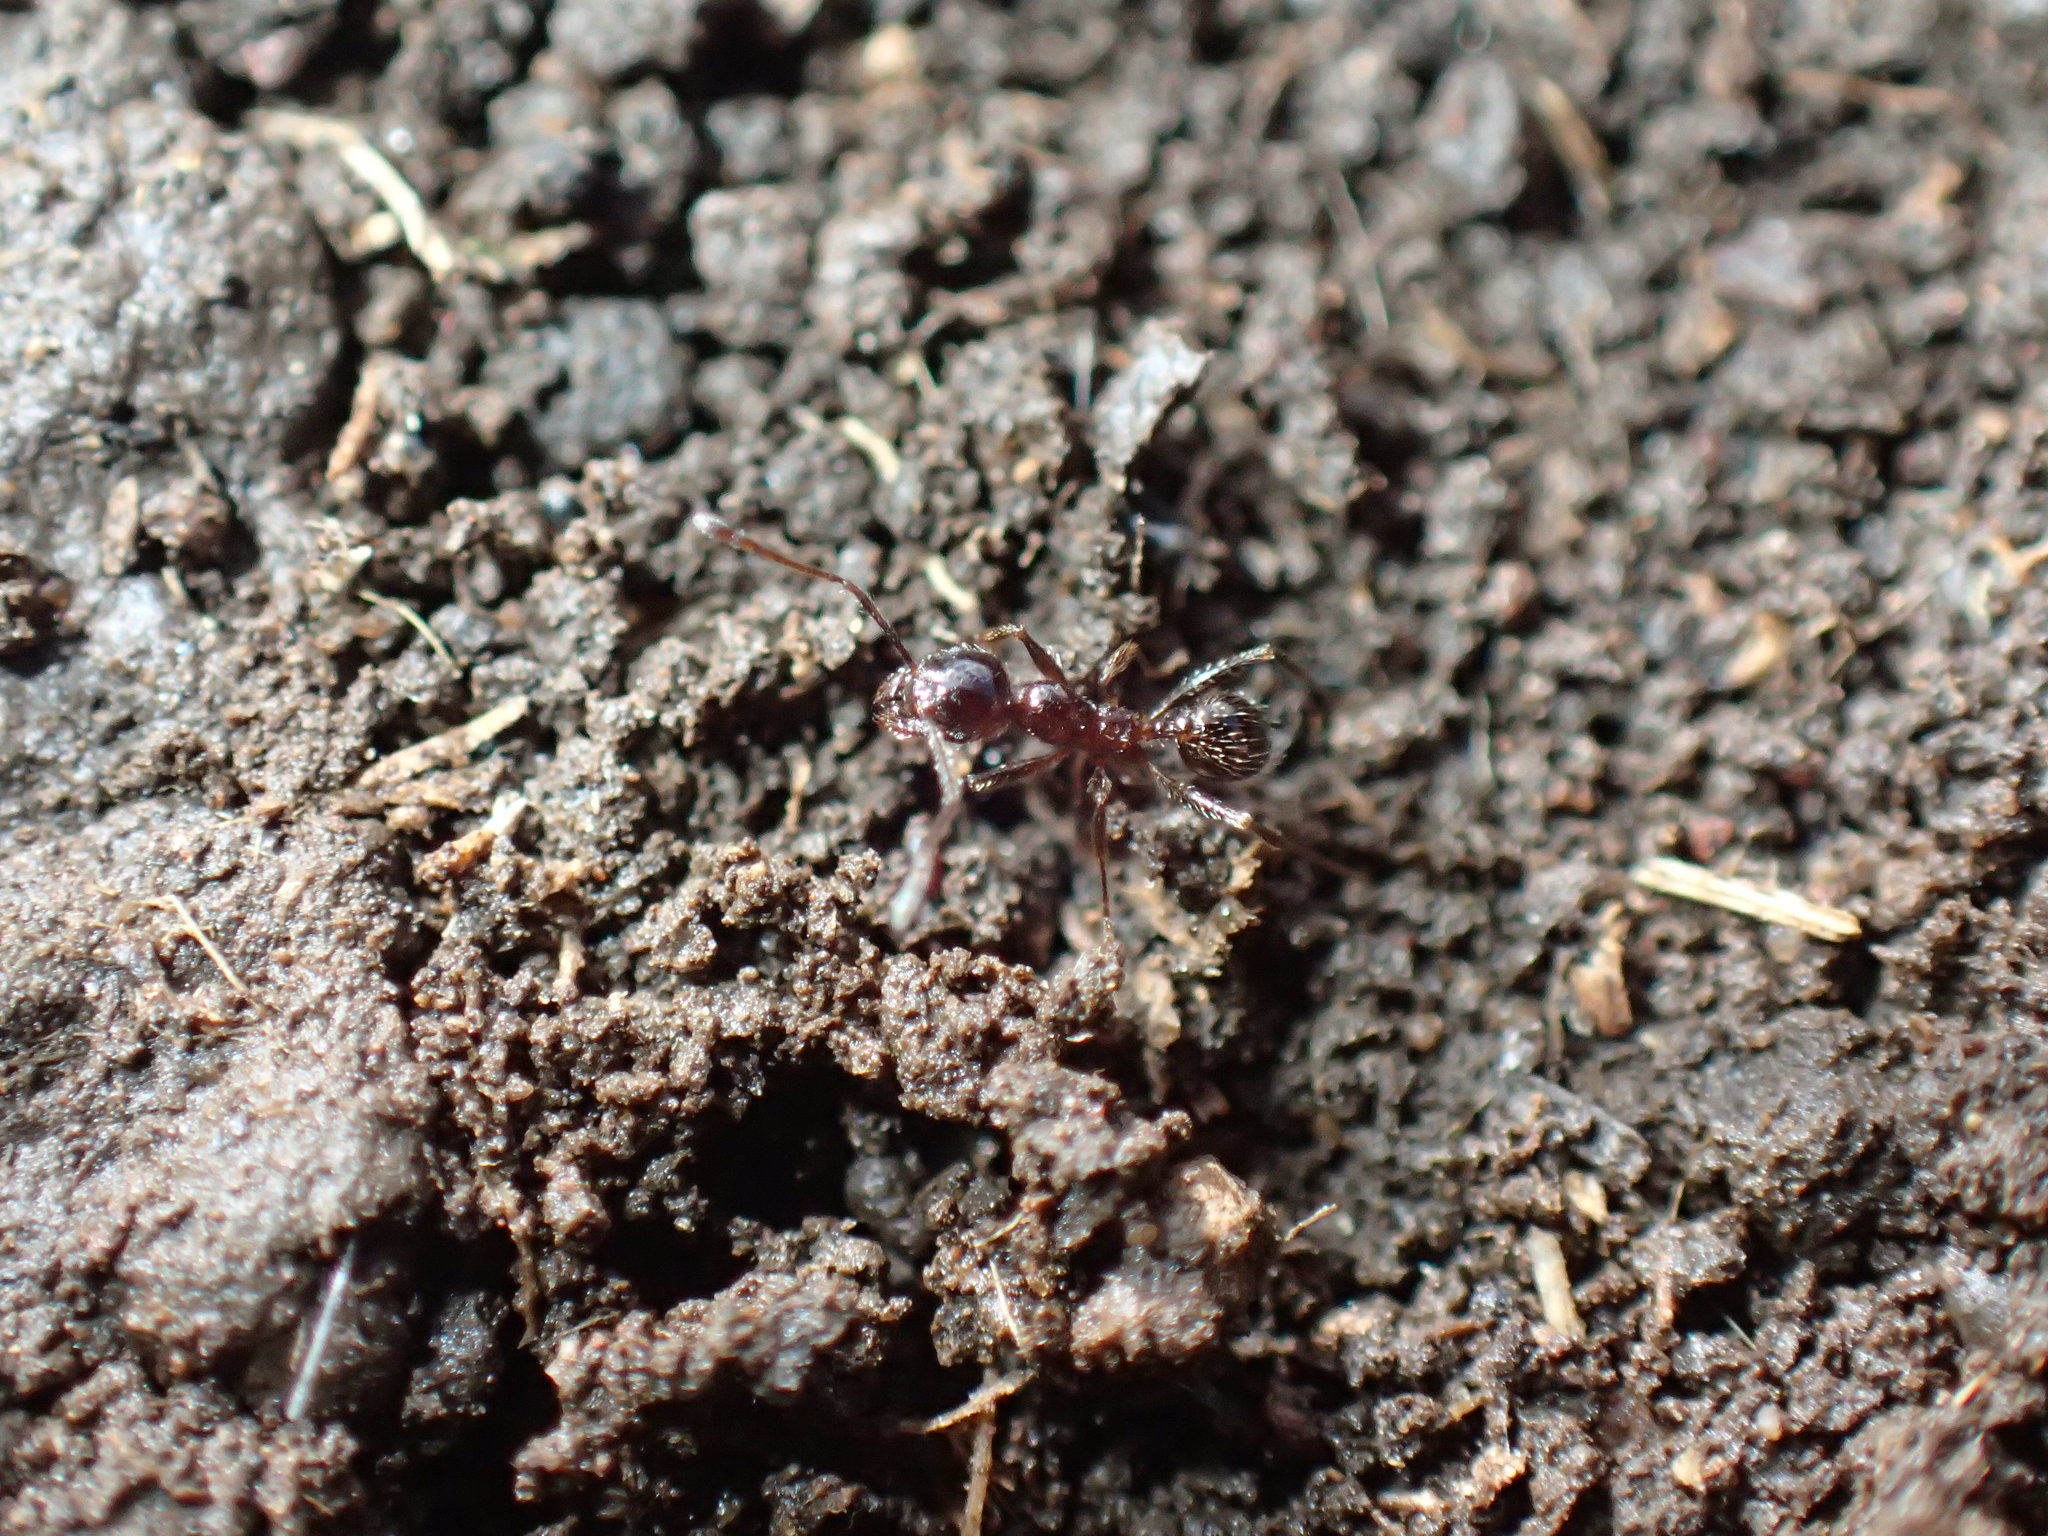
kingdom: Animalia
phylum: Arthropoda
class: Insecta
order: Hymenoptera
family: Formicidae
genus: Pheidole
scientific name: Pheidole capensis
